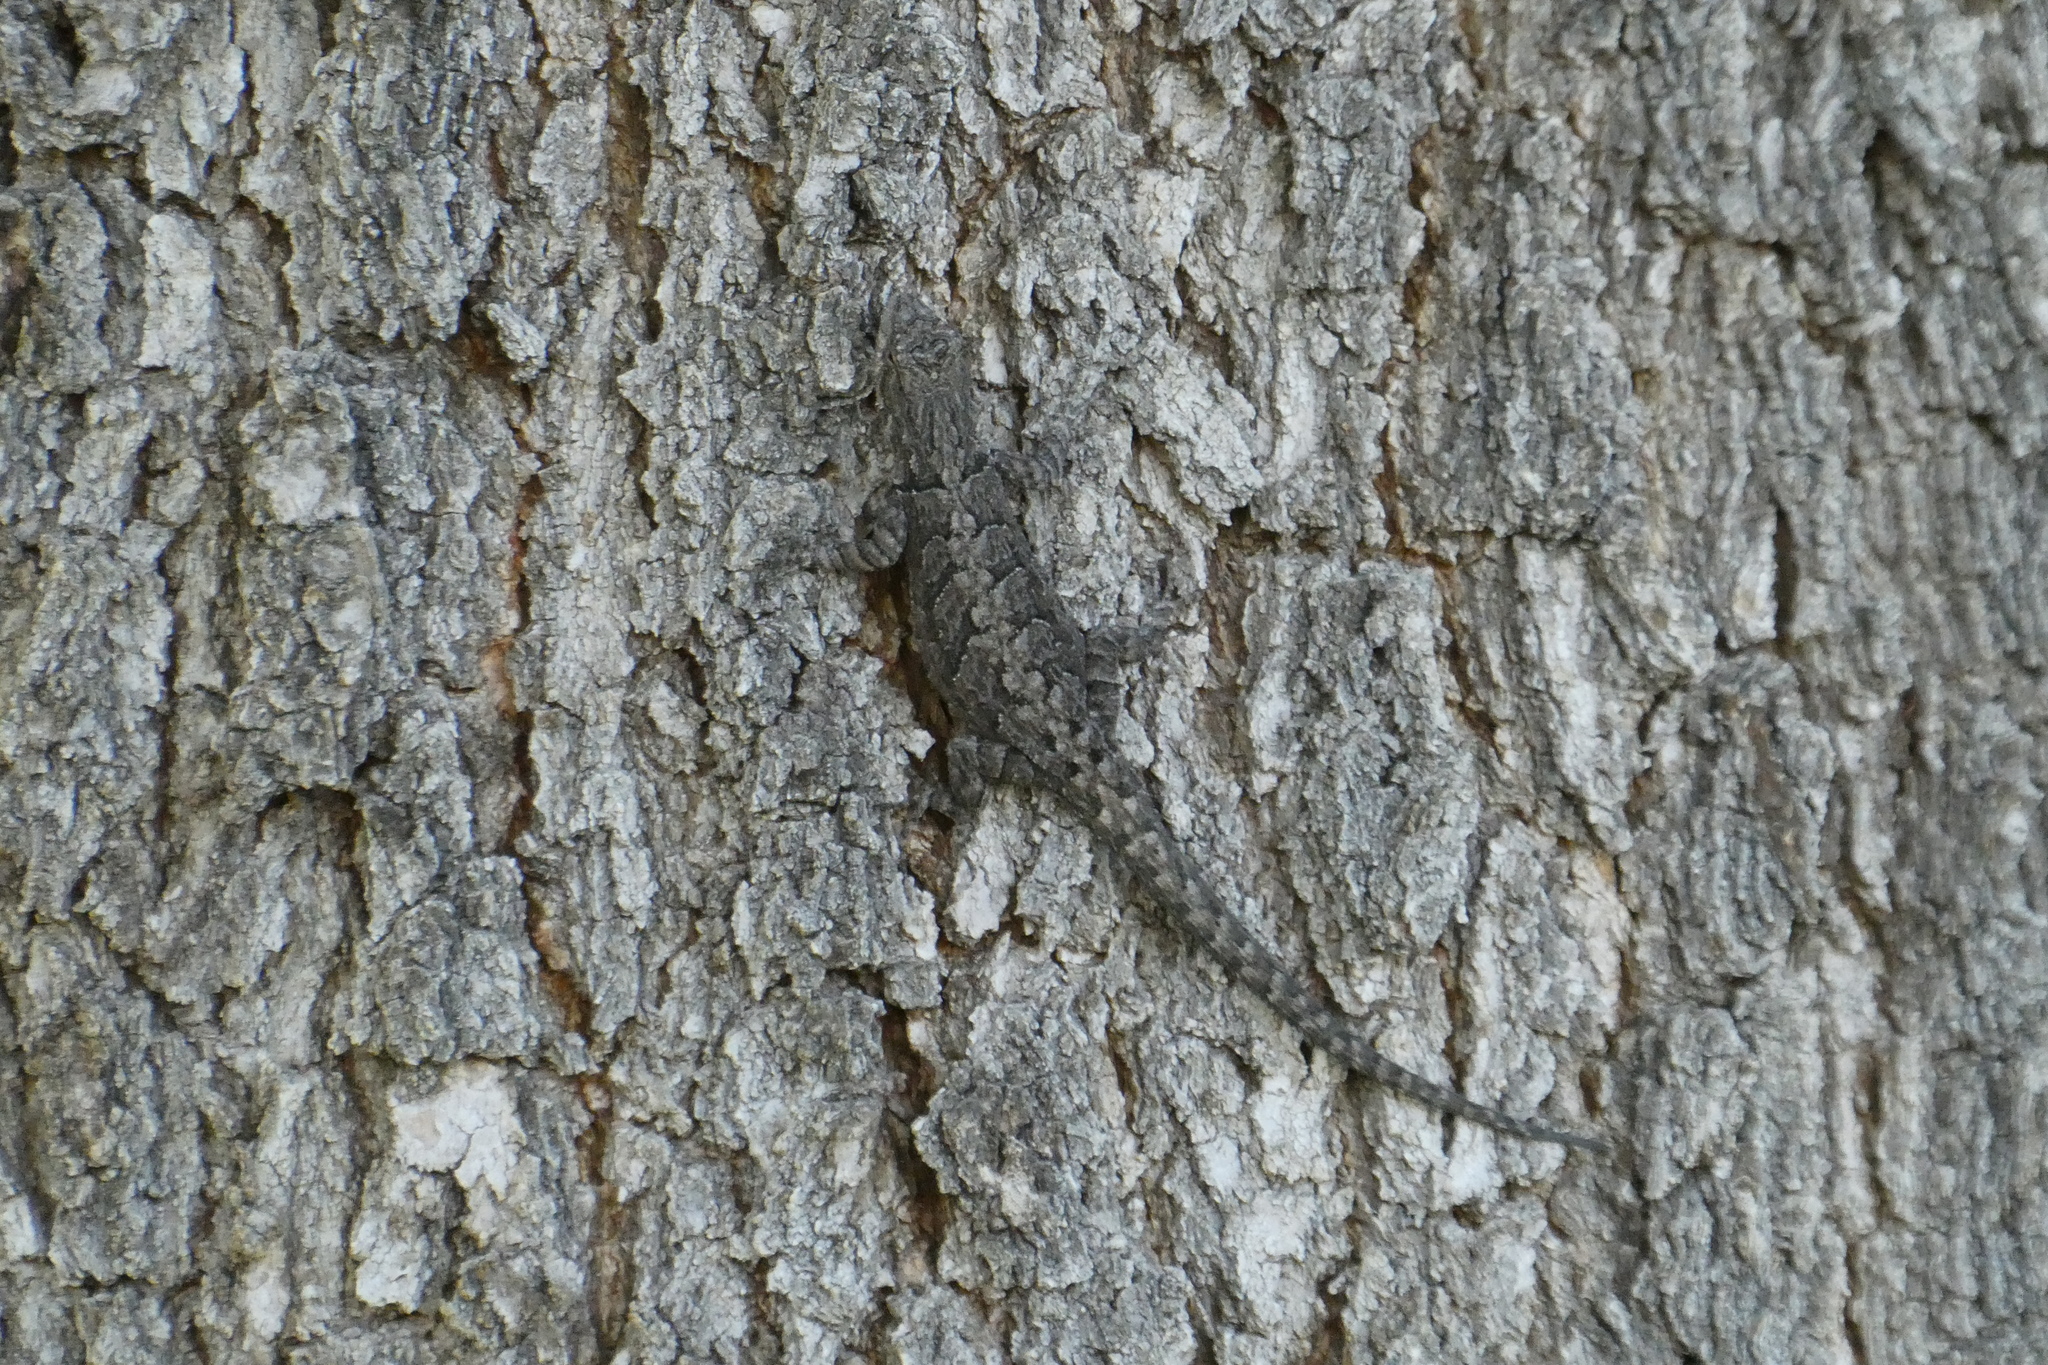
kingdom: Animalia
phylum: Chordata
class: Squamata
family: Phrynosomatidae
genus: Urosaurus
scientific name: Urosaurus ornatus
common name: Ornate tree lizard
